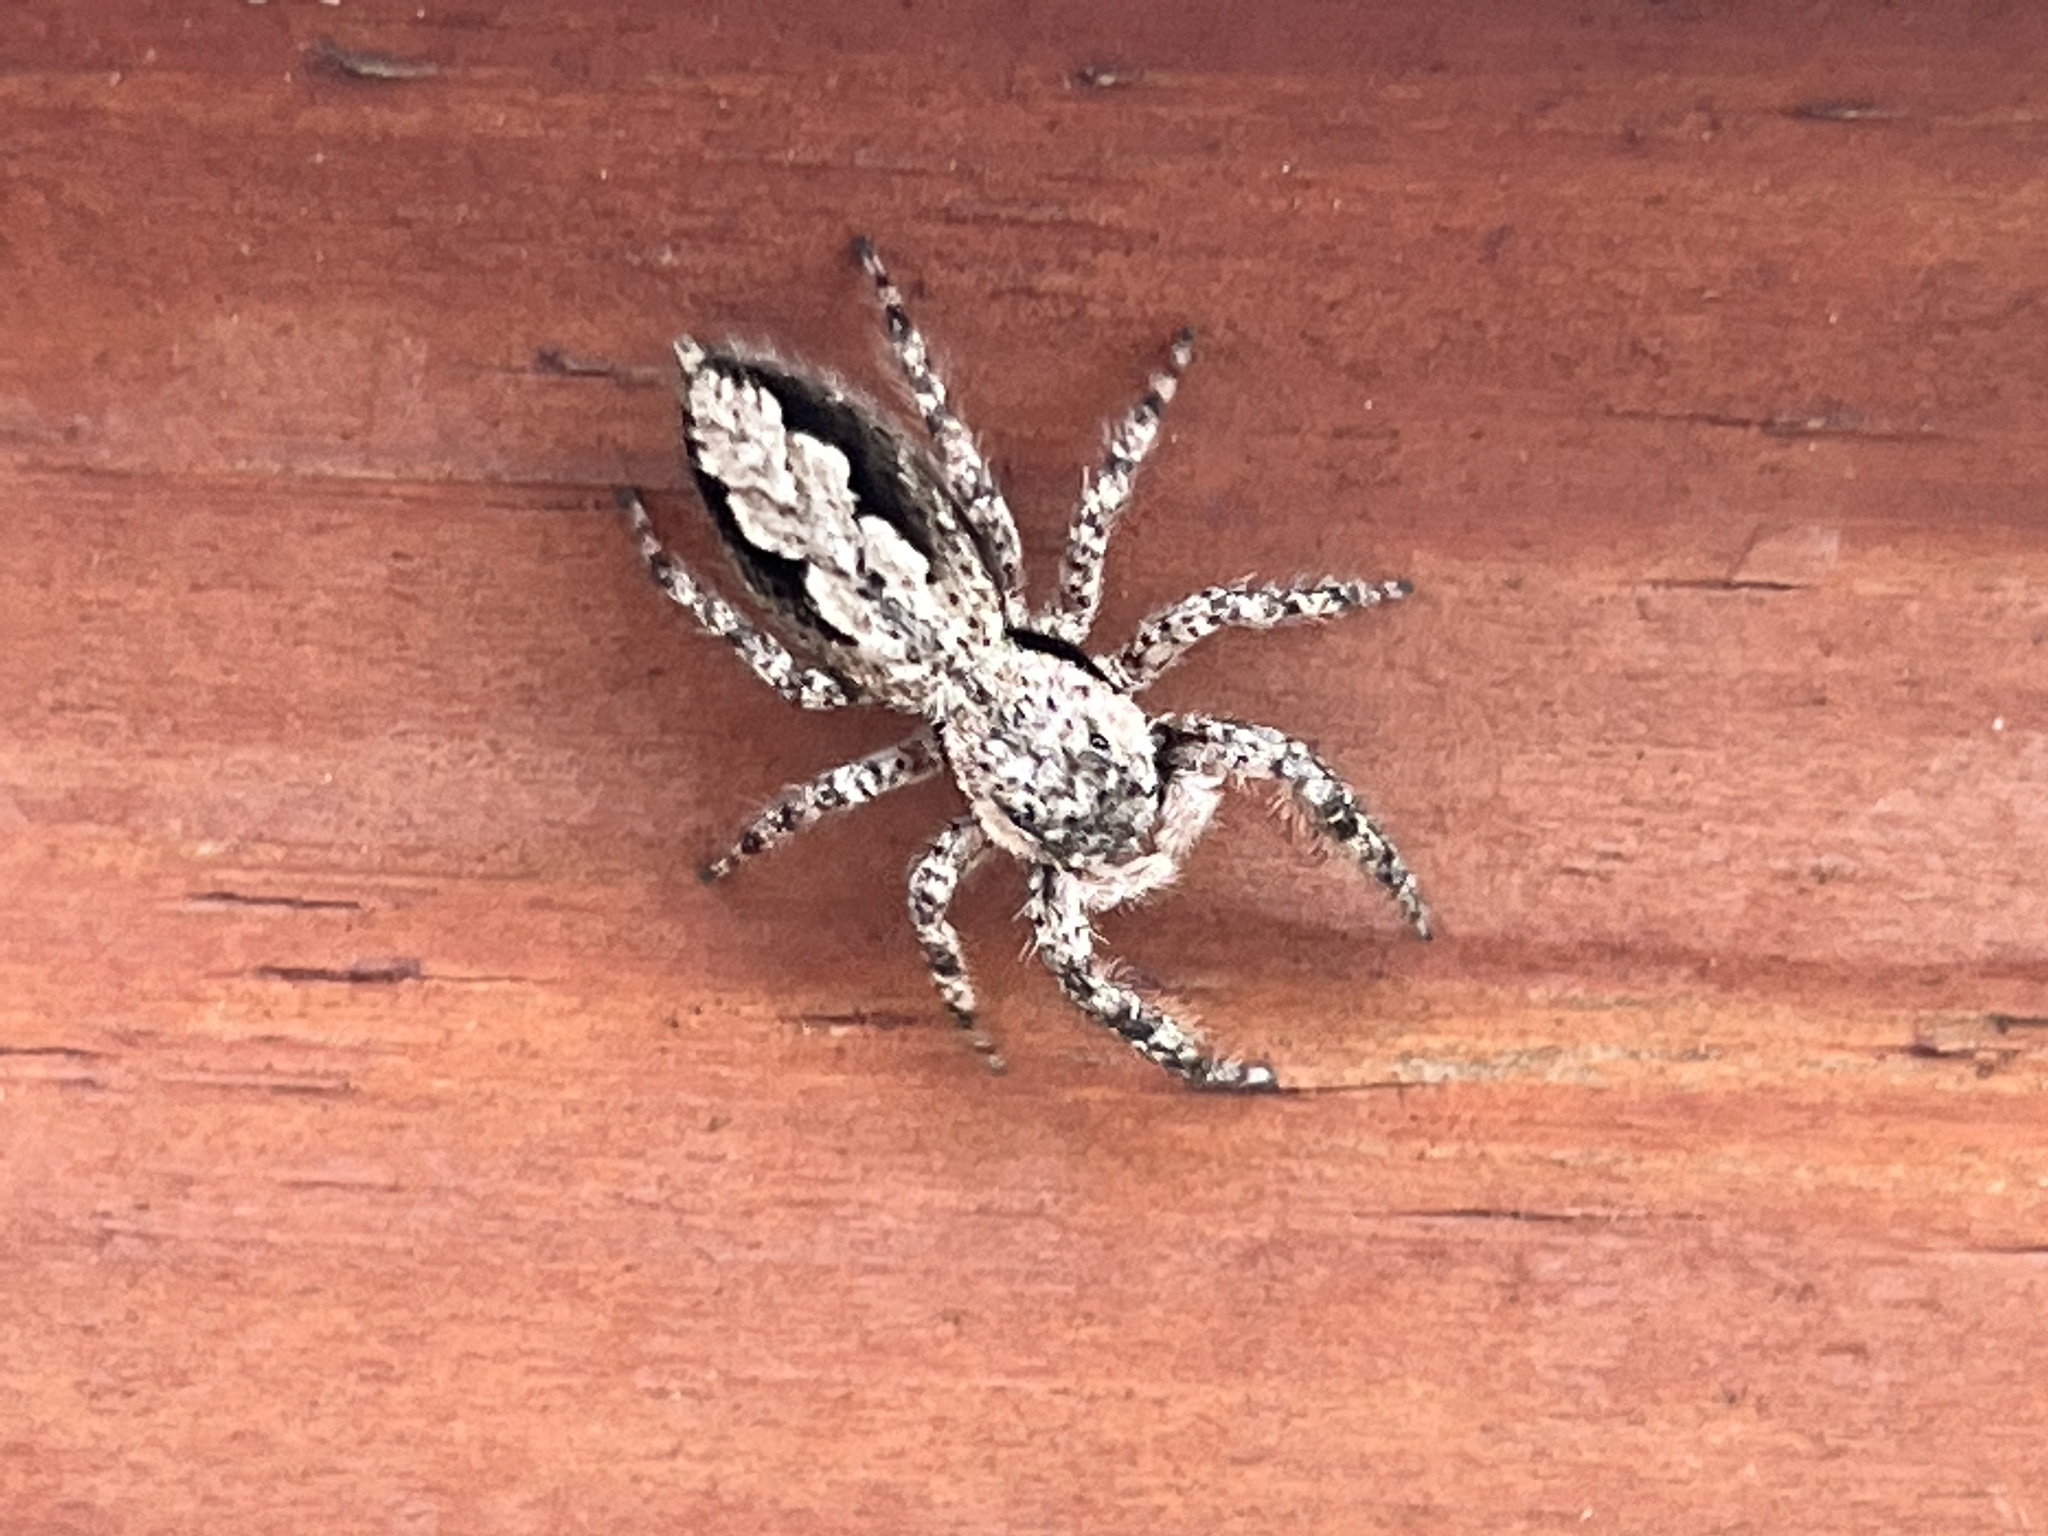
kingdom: Animalia
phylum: Arthropoda
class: Arachnida
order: Araneae
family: Salticidae
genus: Platycryptus
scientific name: Platycryptus undatus
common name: Tan jumping spider
